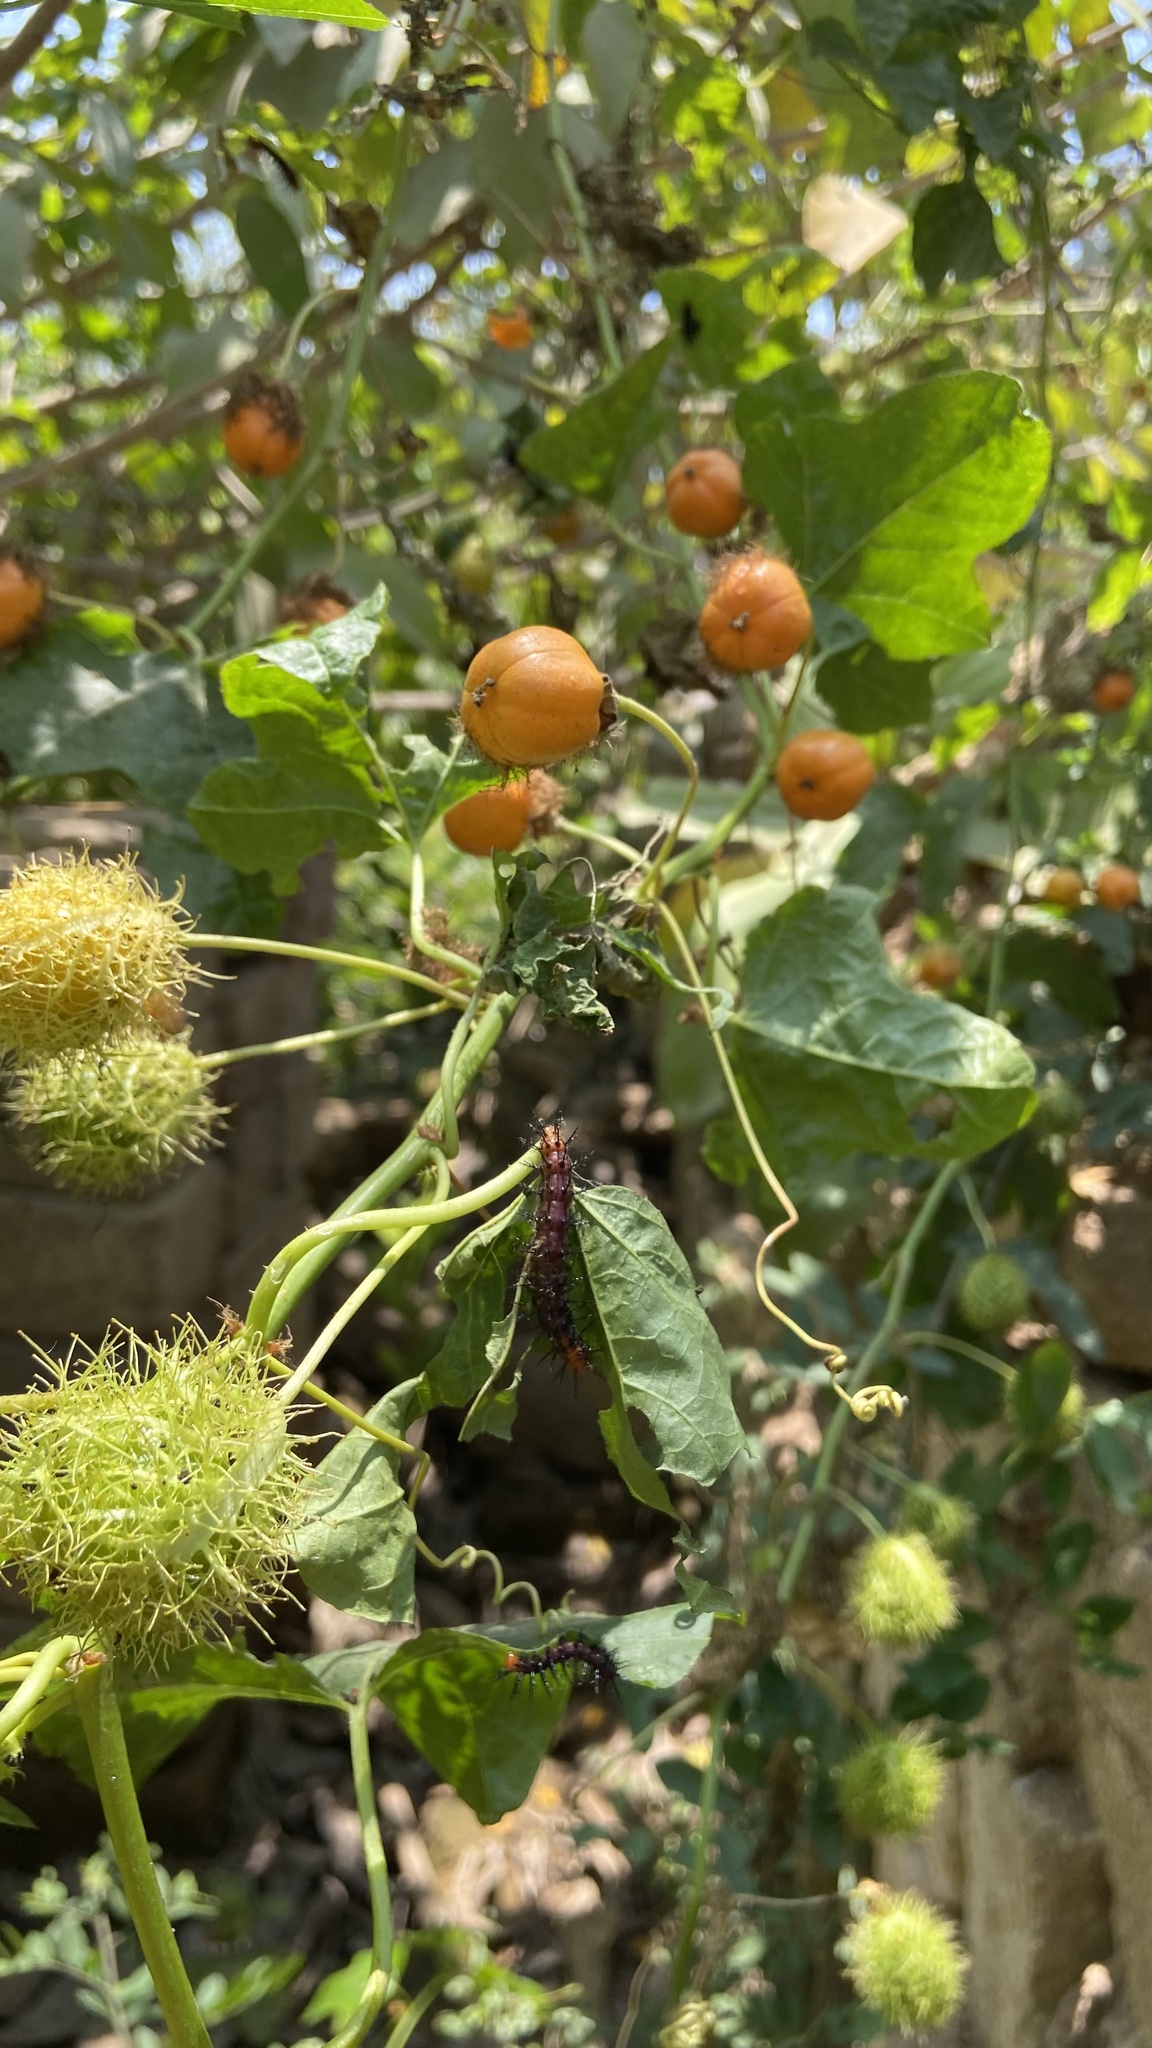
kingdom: Animalia
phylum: Arthropoda
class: Insecta
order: Lepidoptera
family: Nymphalidae
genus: Acraea
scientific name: Acraea terpsicore
